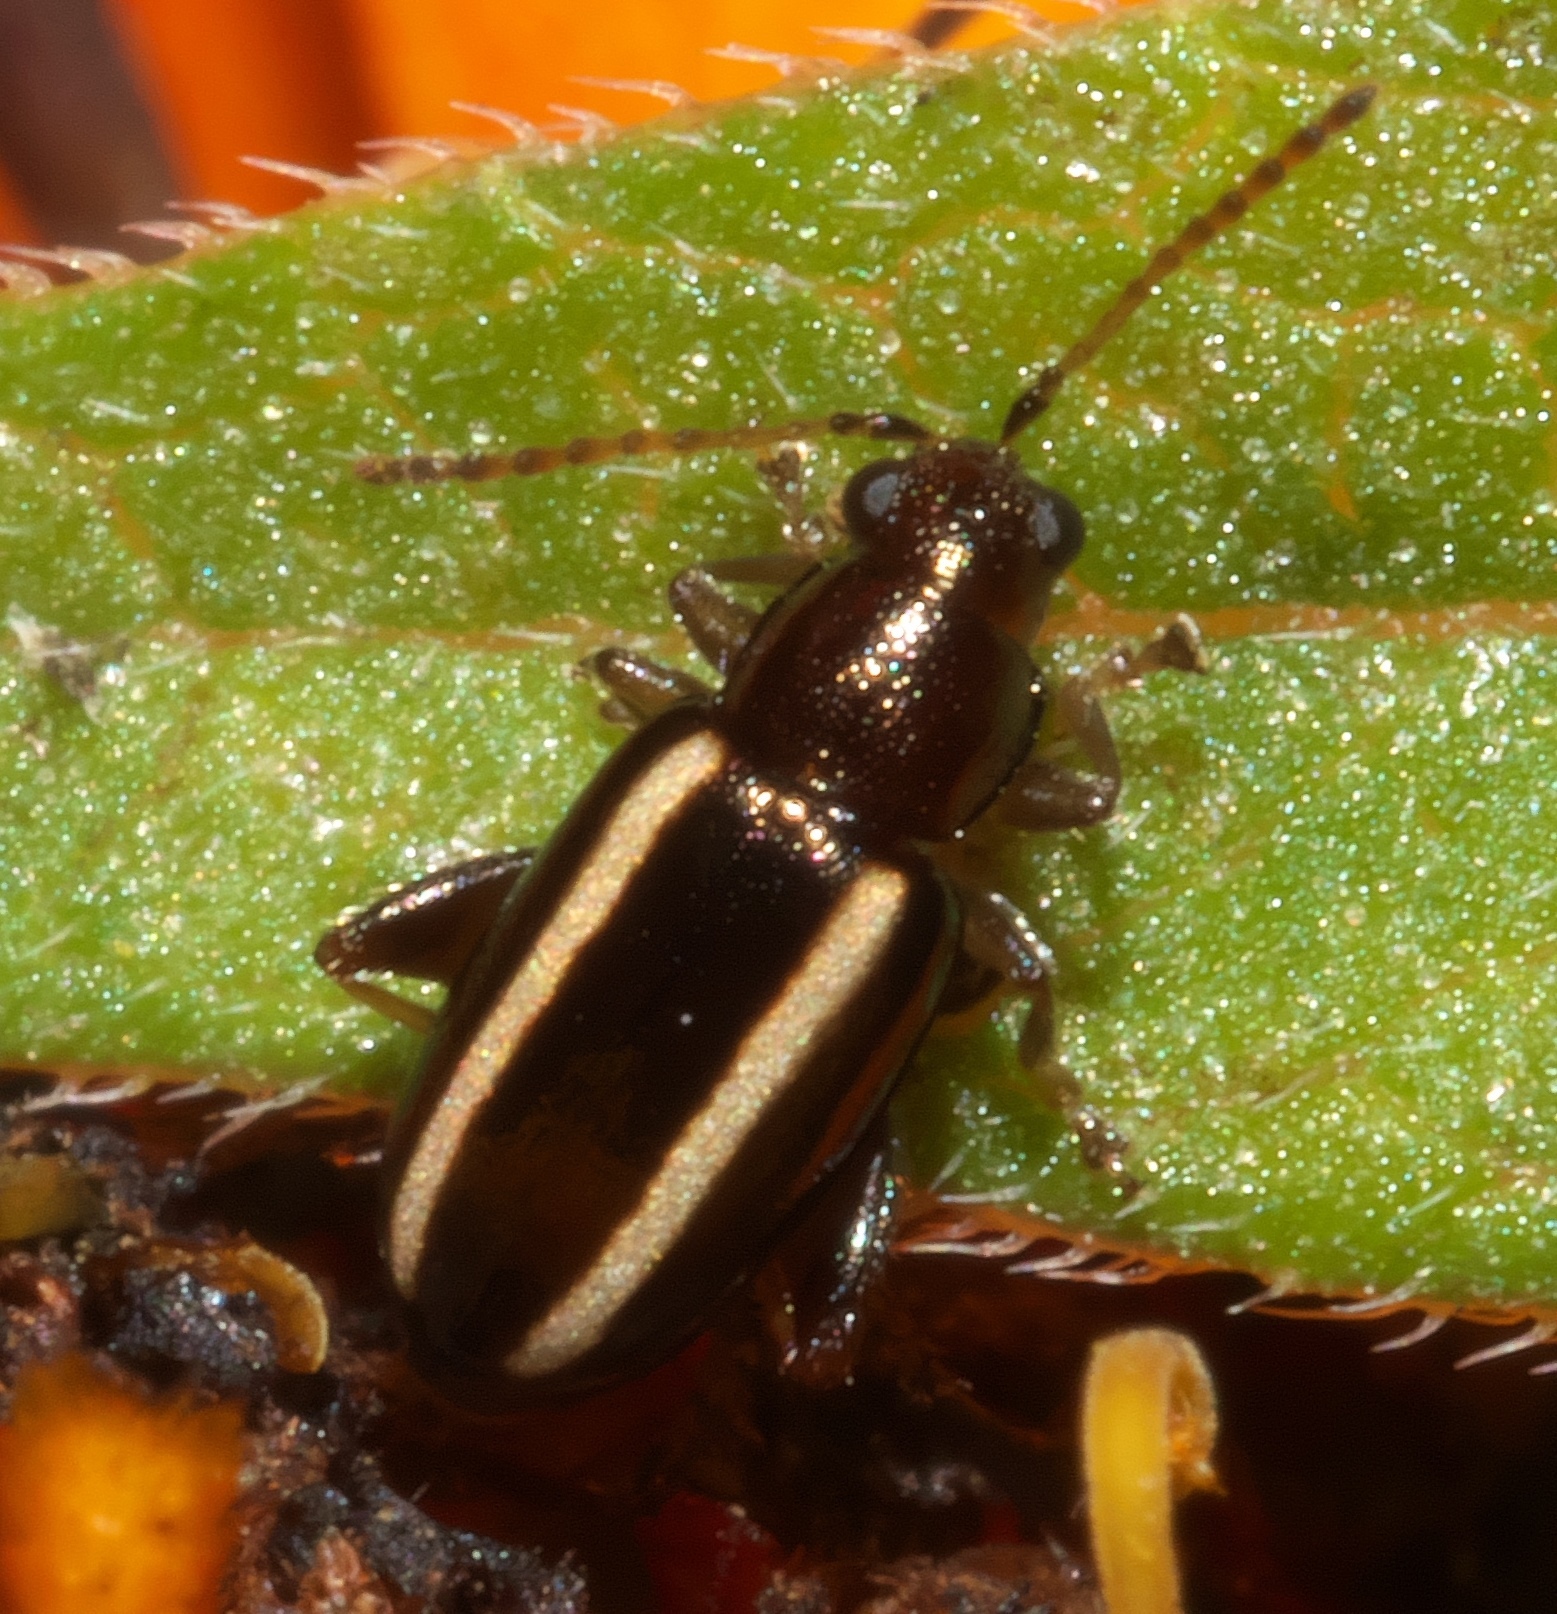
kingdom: Animalia
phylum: Arthropoda
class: Insecta
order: Coleoptera
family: Chrysomelidae
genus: Systena
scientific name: Systena elongata
